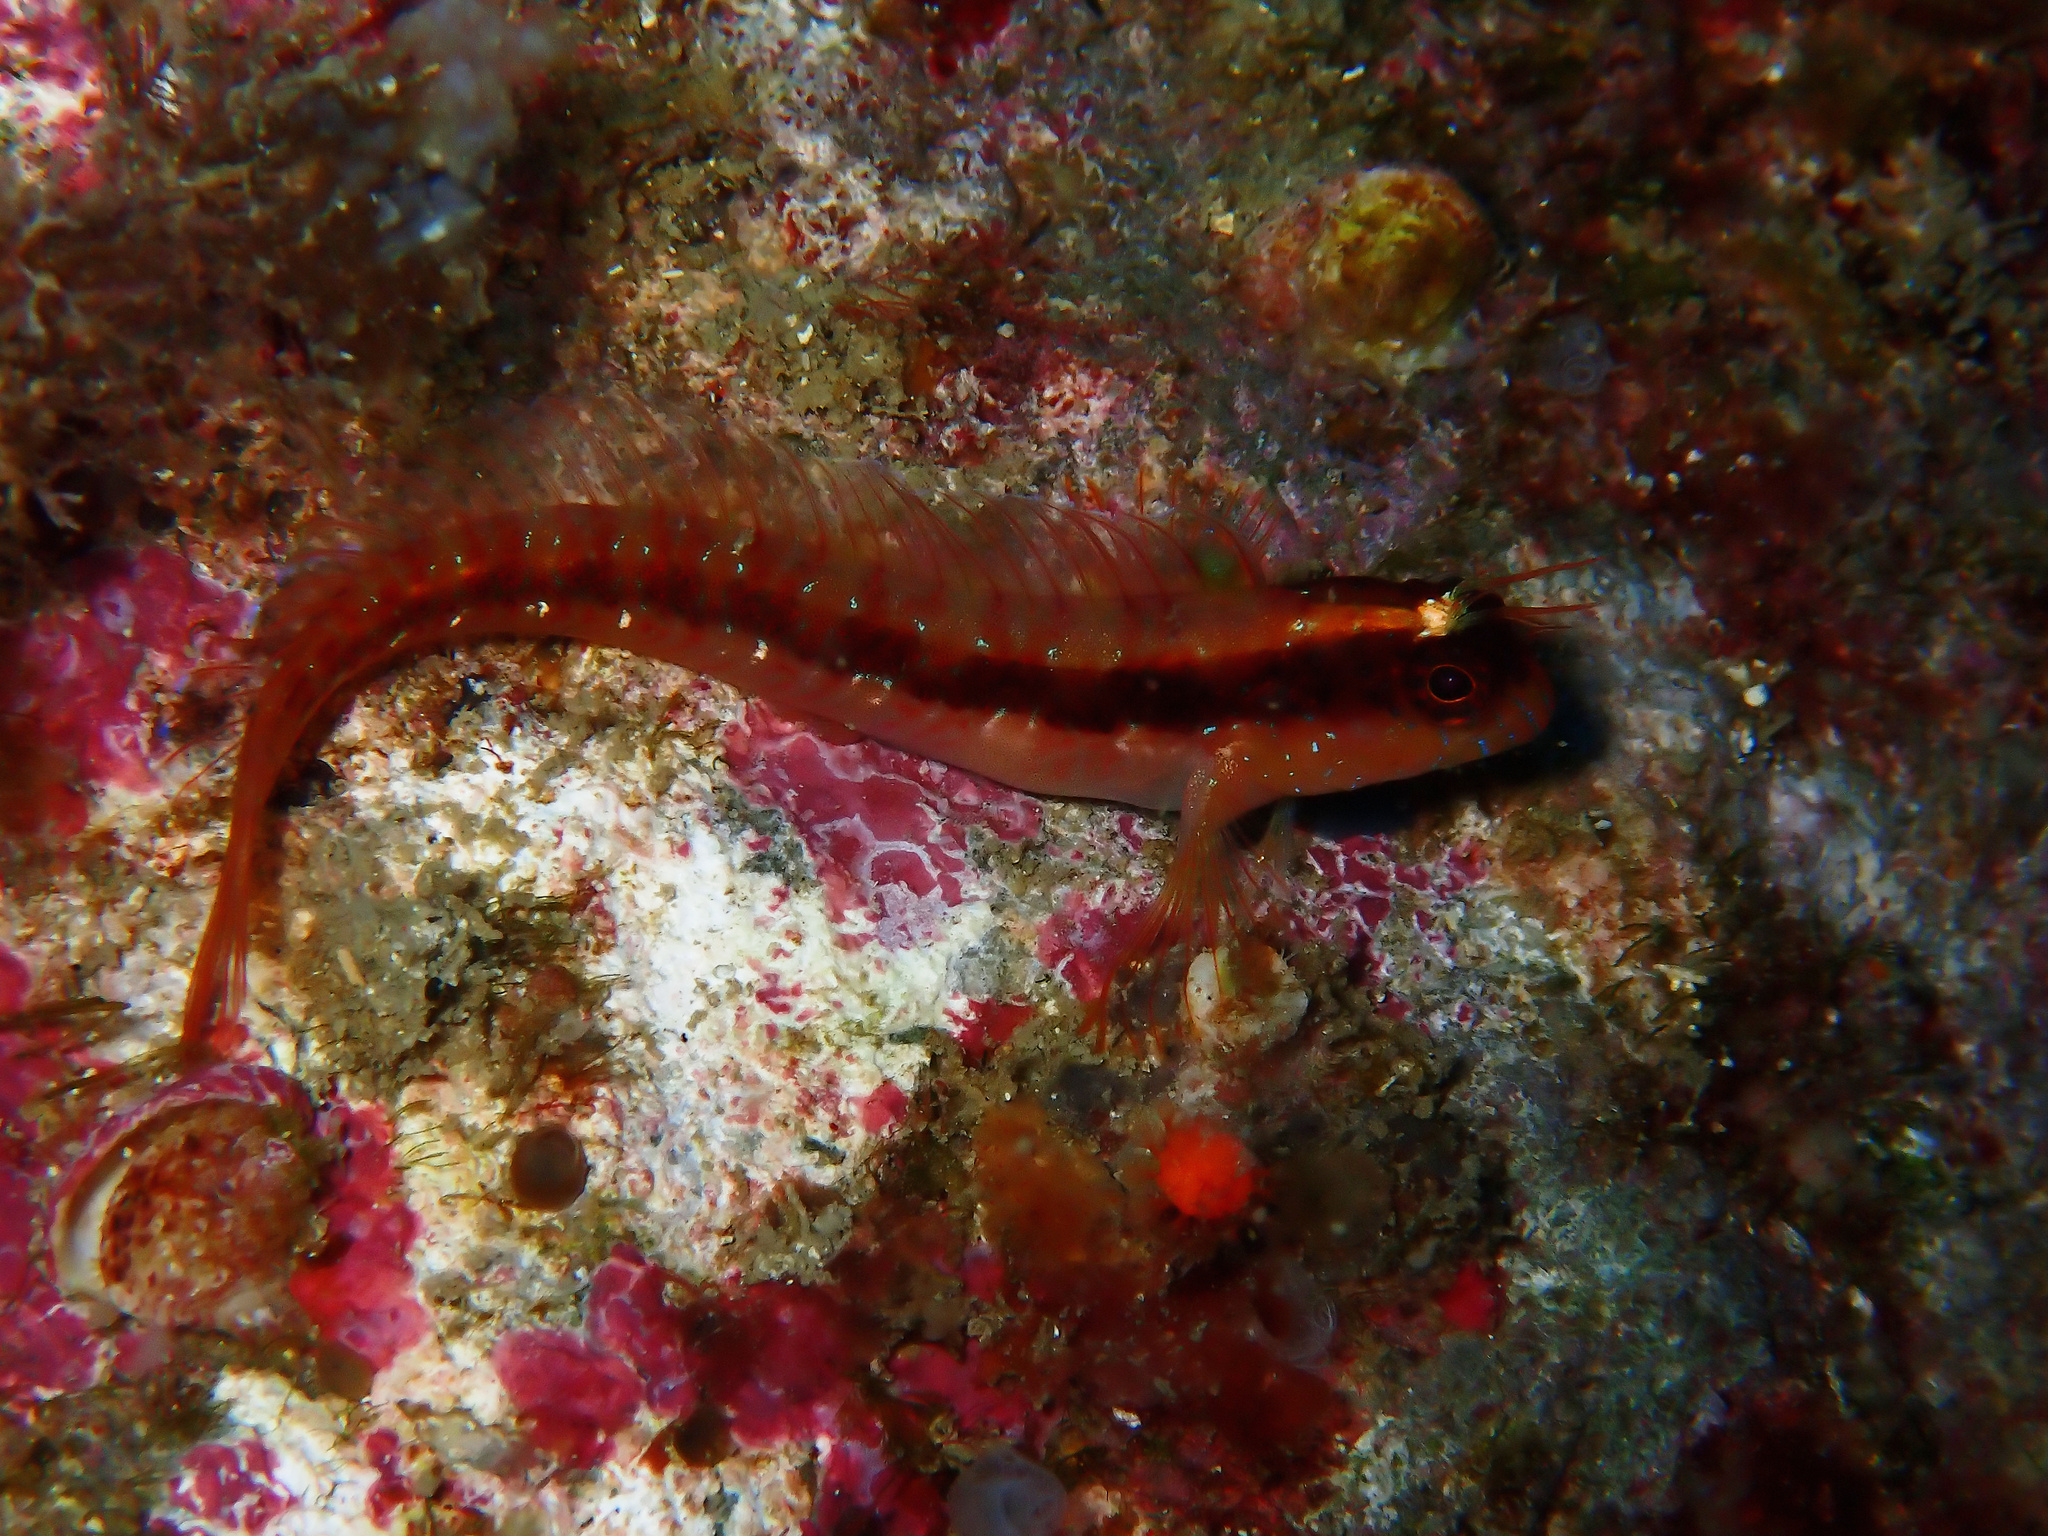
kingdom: Animalia
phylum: Chordata
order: Perciformes
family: Blenniidae
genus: Parablennius
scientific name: Parablennius rouxi
